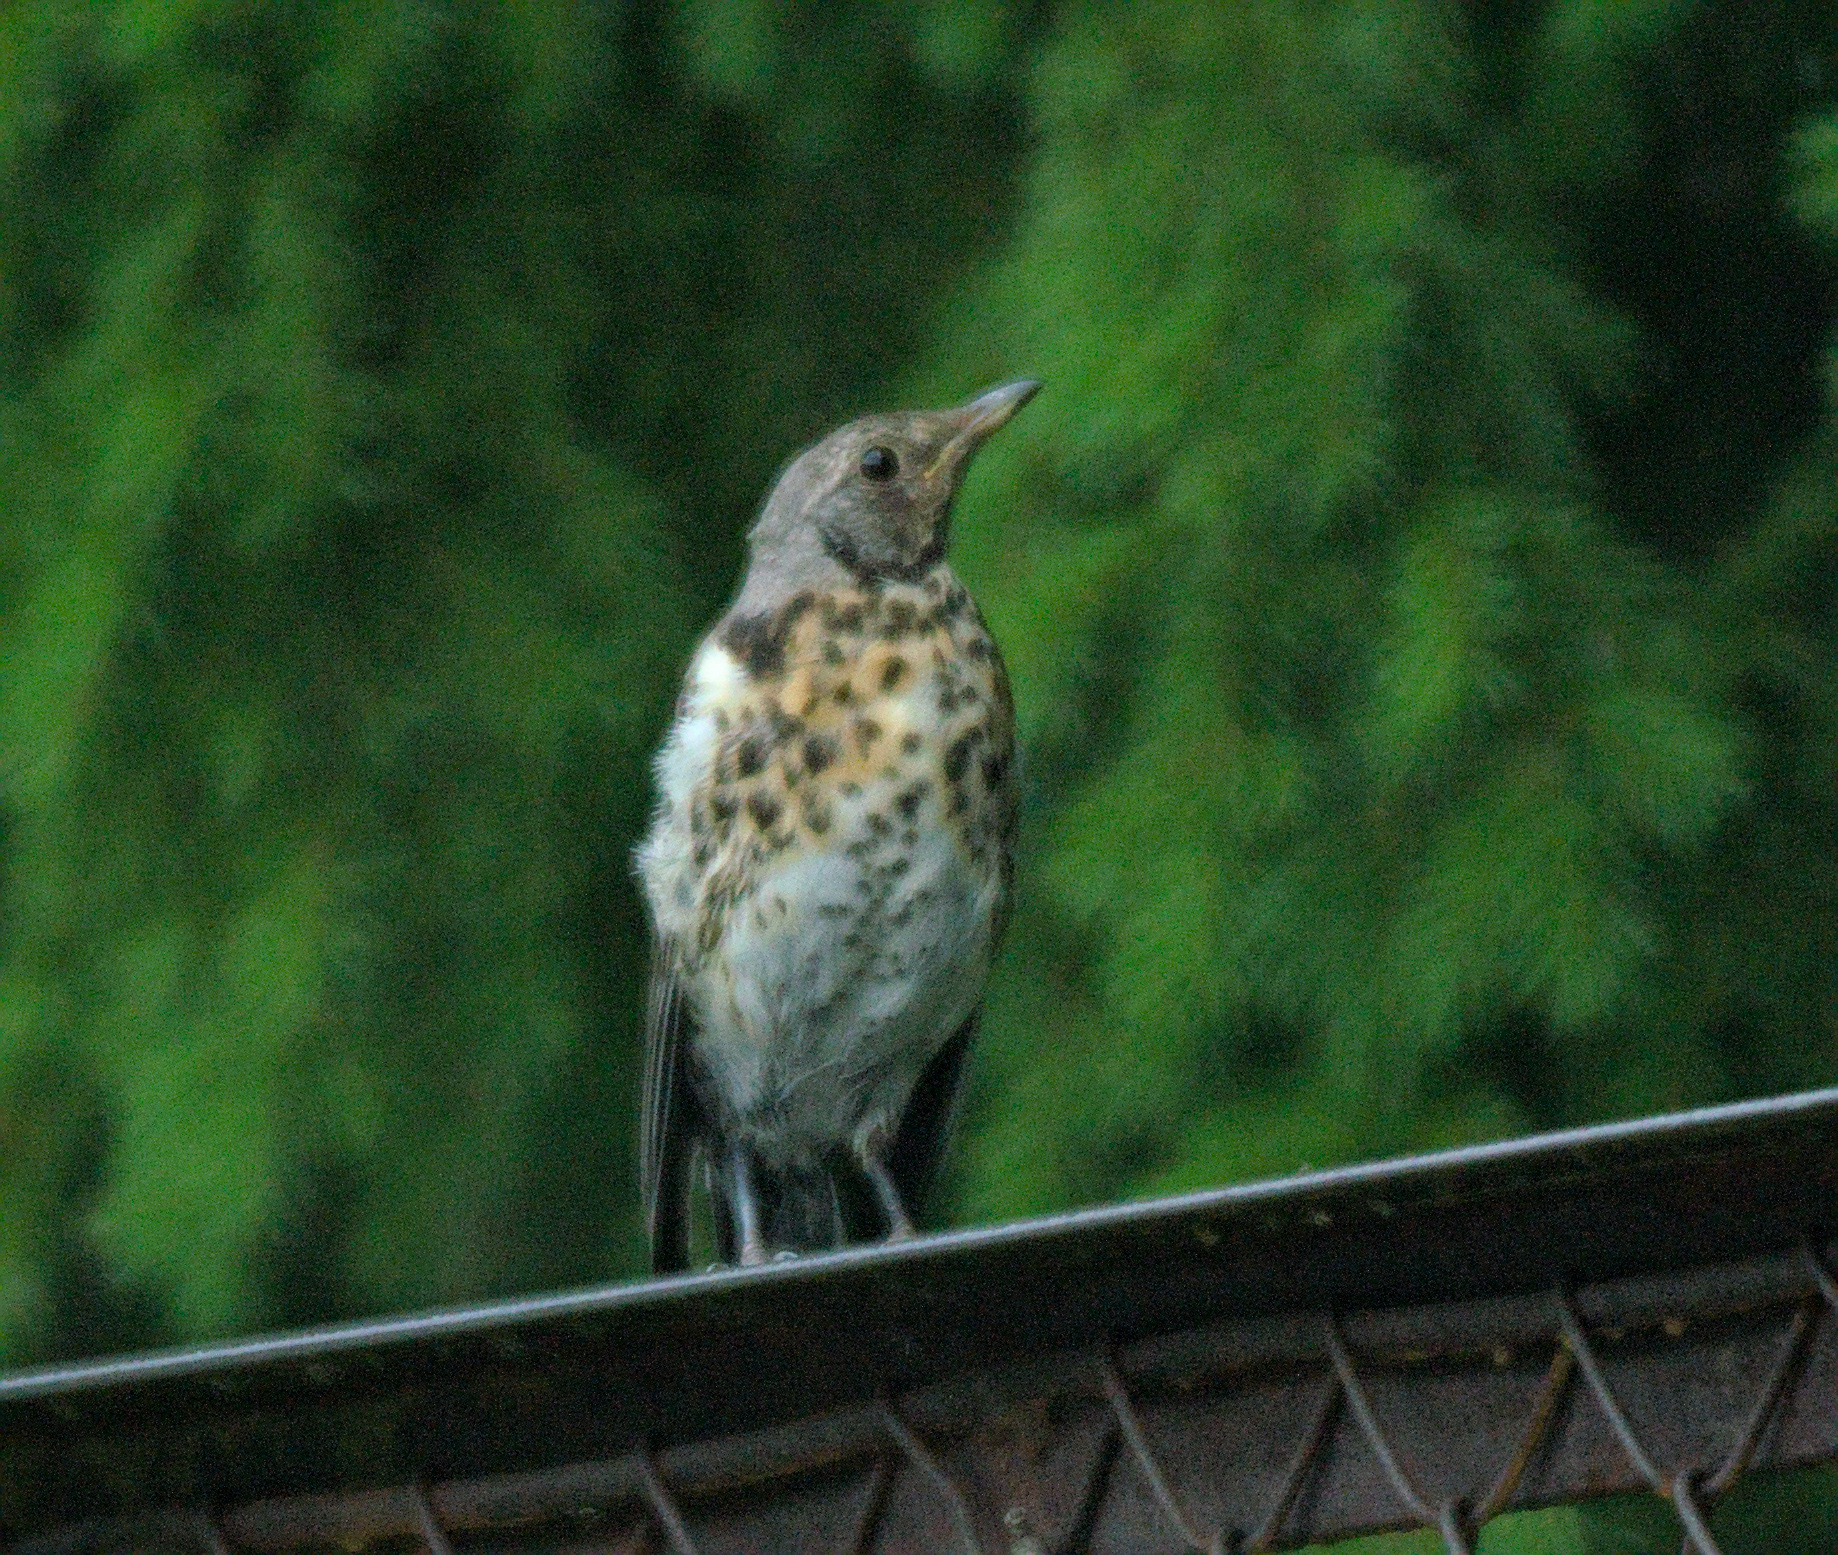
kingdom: Animalia
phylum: Chordata
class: Aves
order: Passeriformes
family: Turdidae
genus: Turdus
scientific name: Turdus pilaris
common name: Fieldfare
